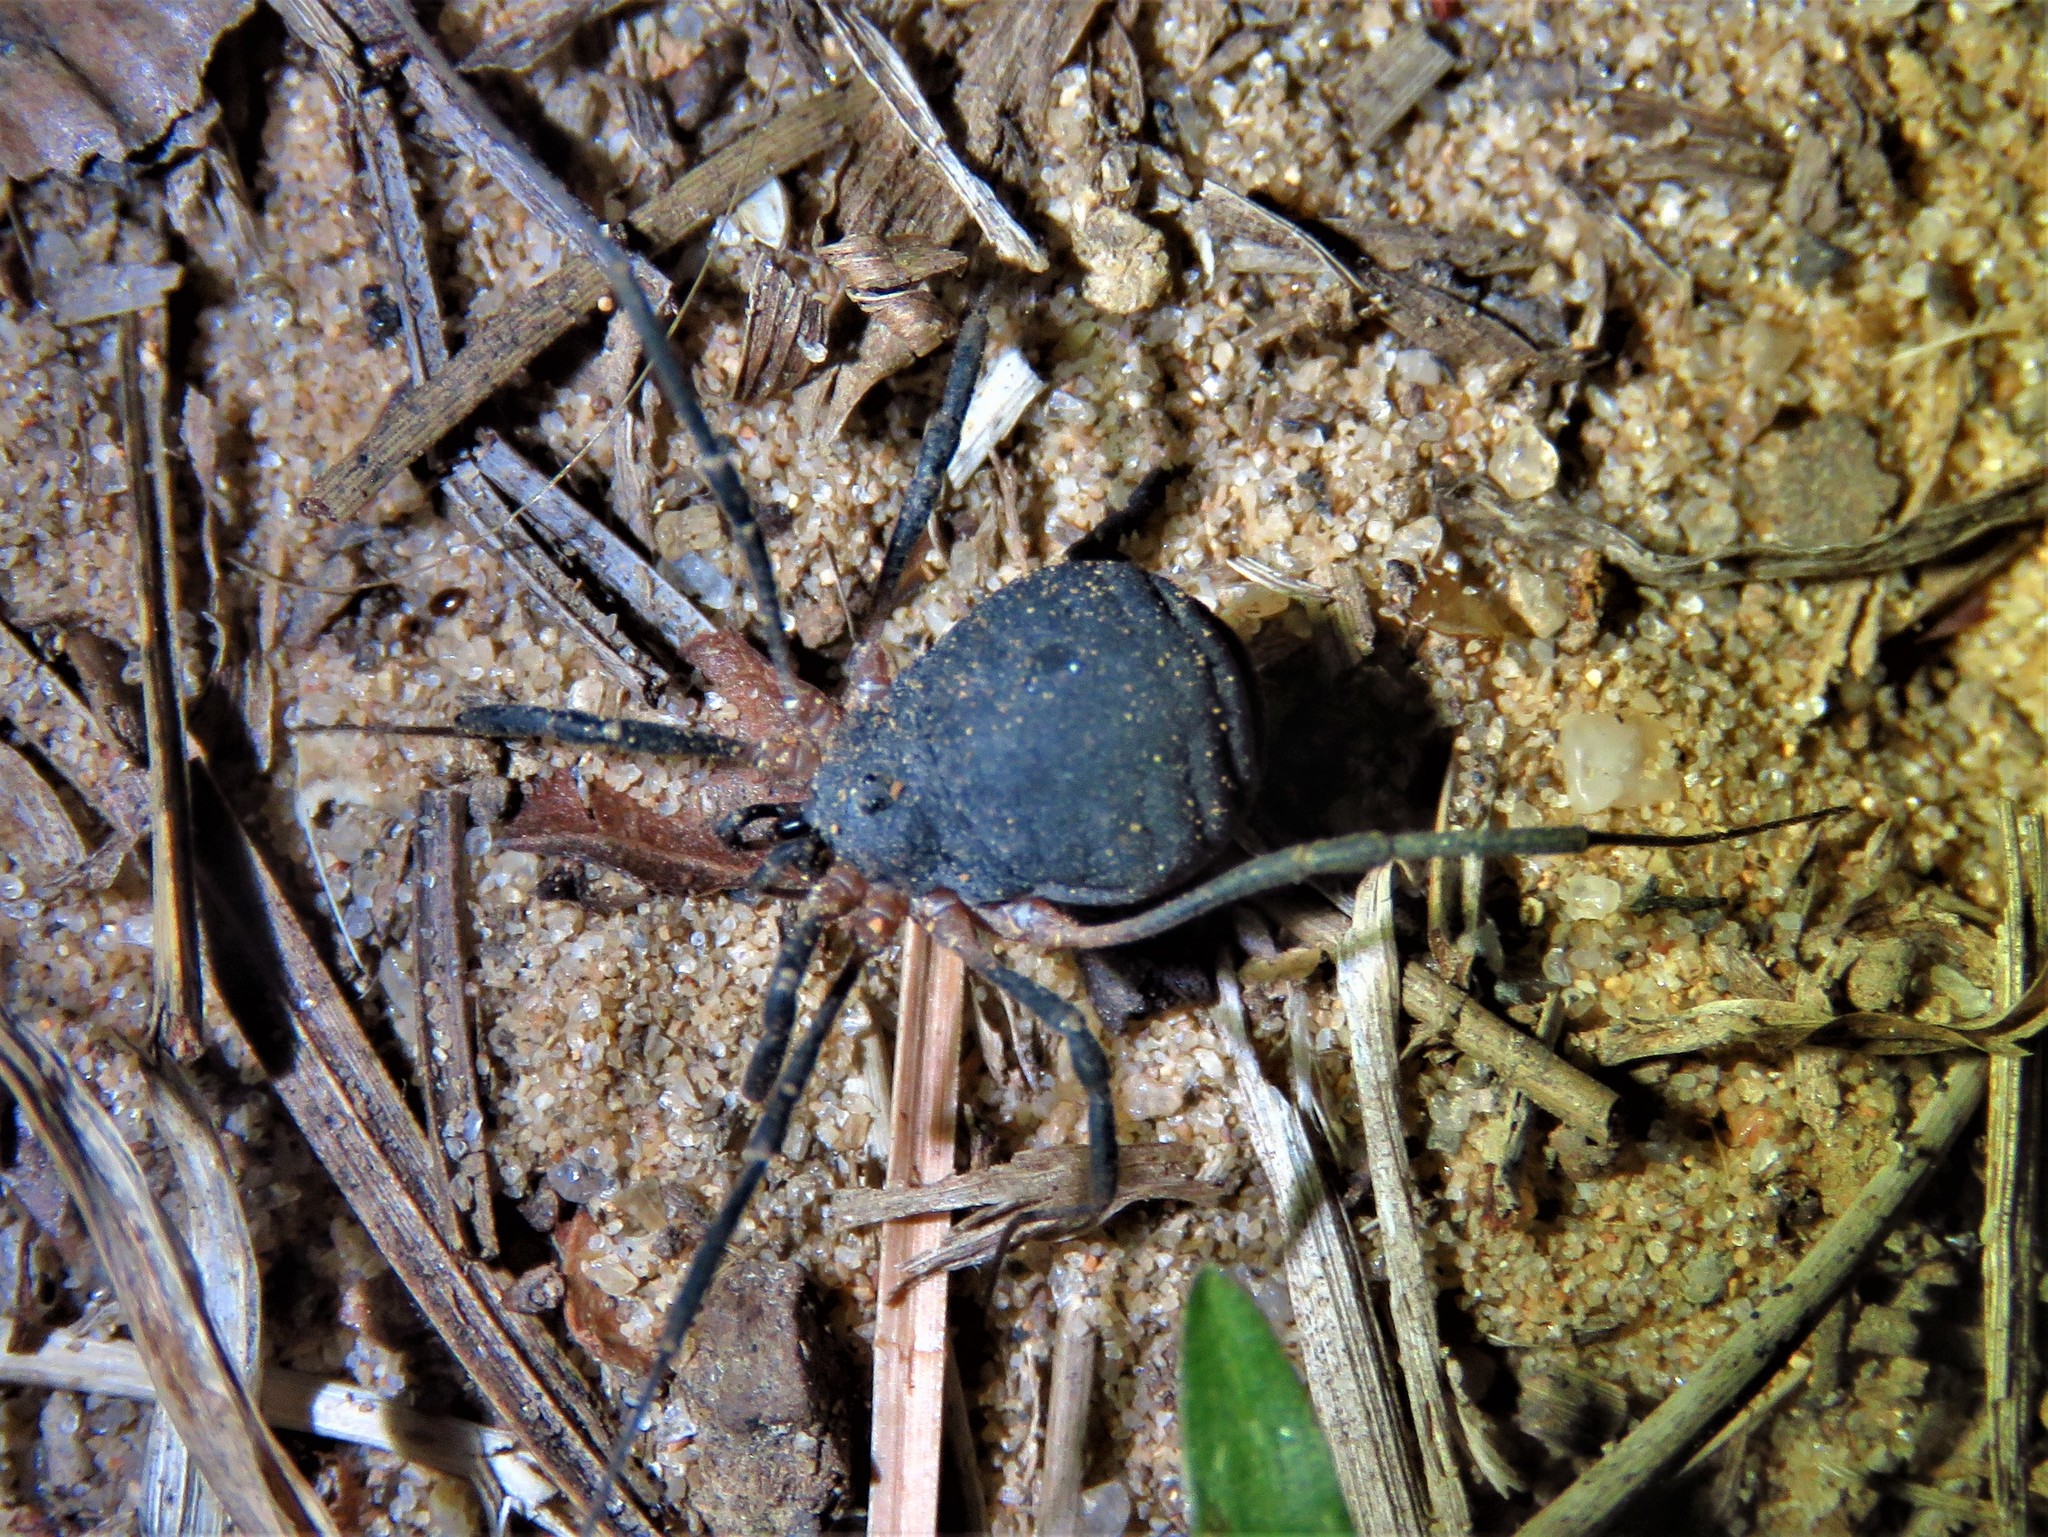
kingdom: Animalia
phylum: Arthropoda
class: Arachnida
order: Opiliones
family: Sclerosomatidae
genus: Eumesosoma
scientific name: Eumesosoma roeweri
